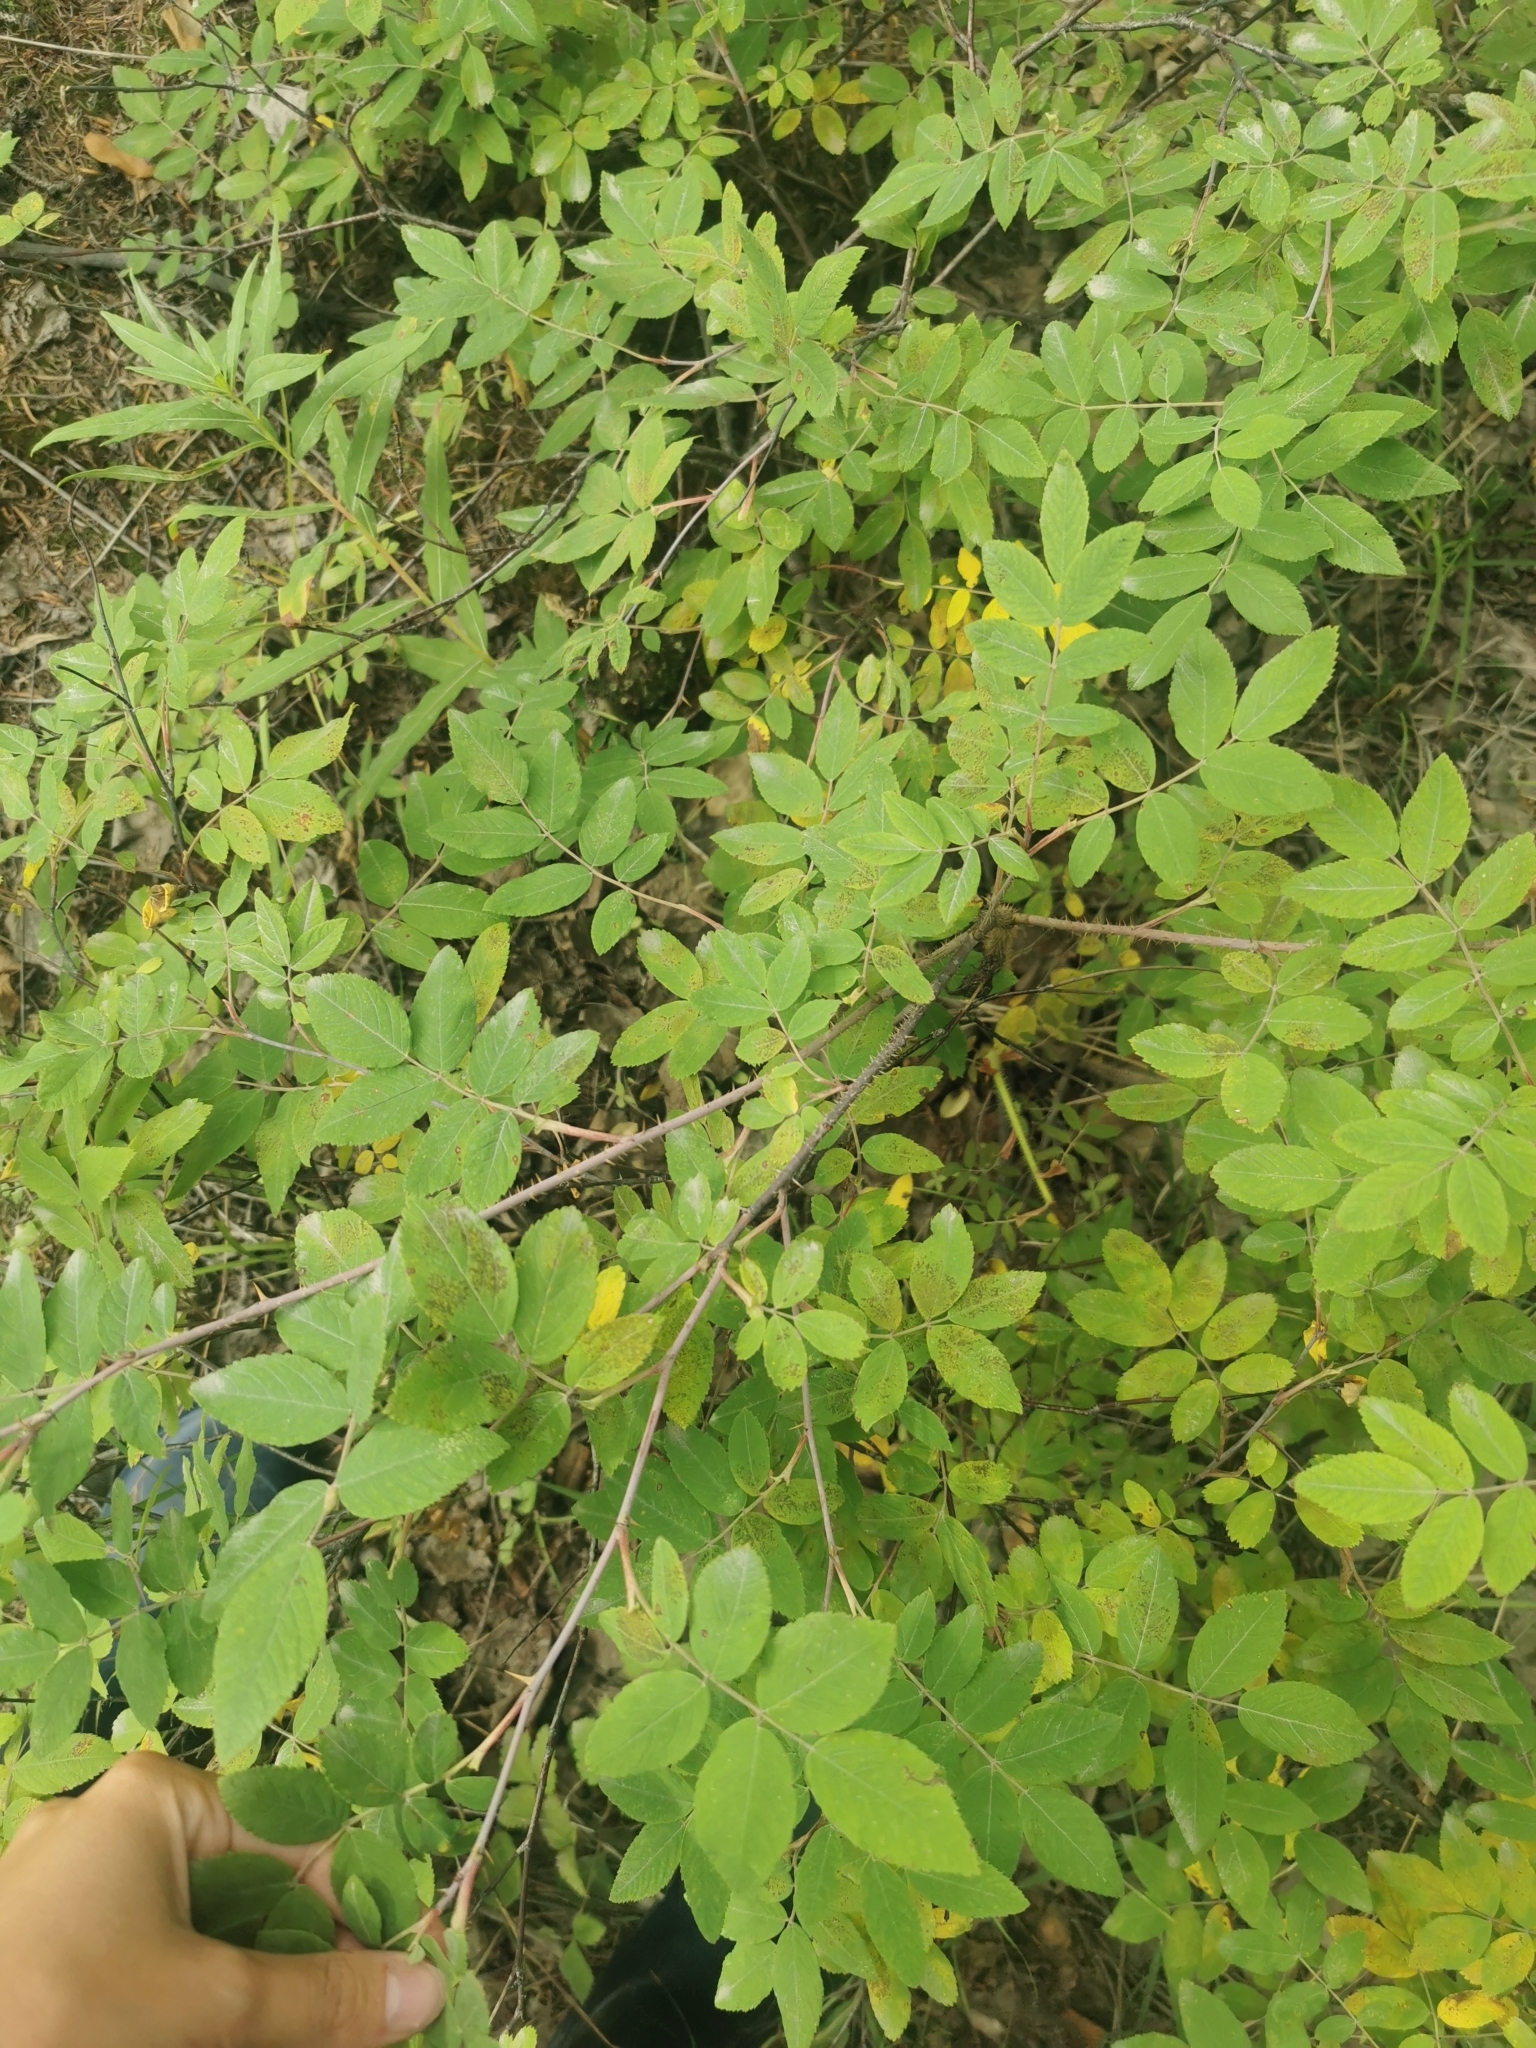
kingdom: Plantae
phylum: Tracheophyta
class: Magnoliopsida
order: Rosales
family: Rosaceae
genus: Rosa
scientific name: Rosa davurica
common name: Amur rose
